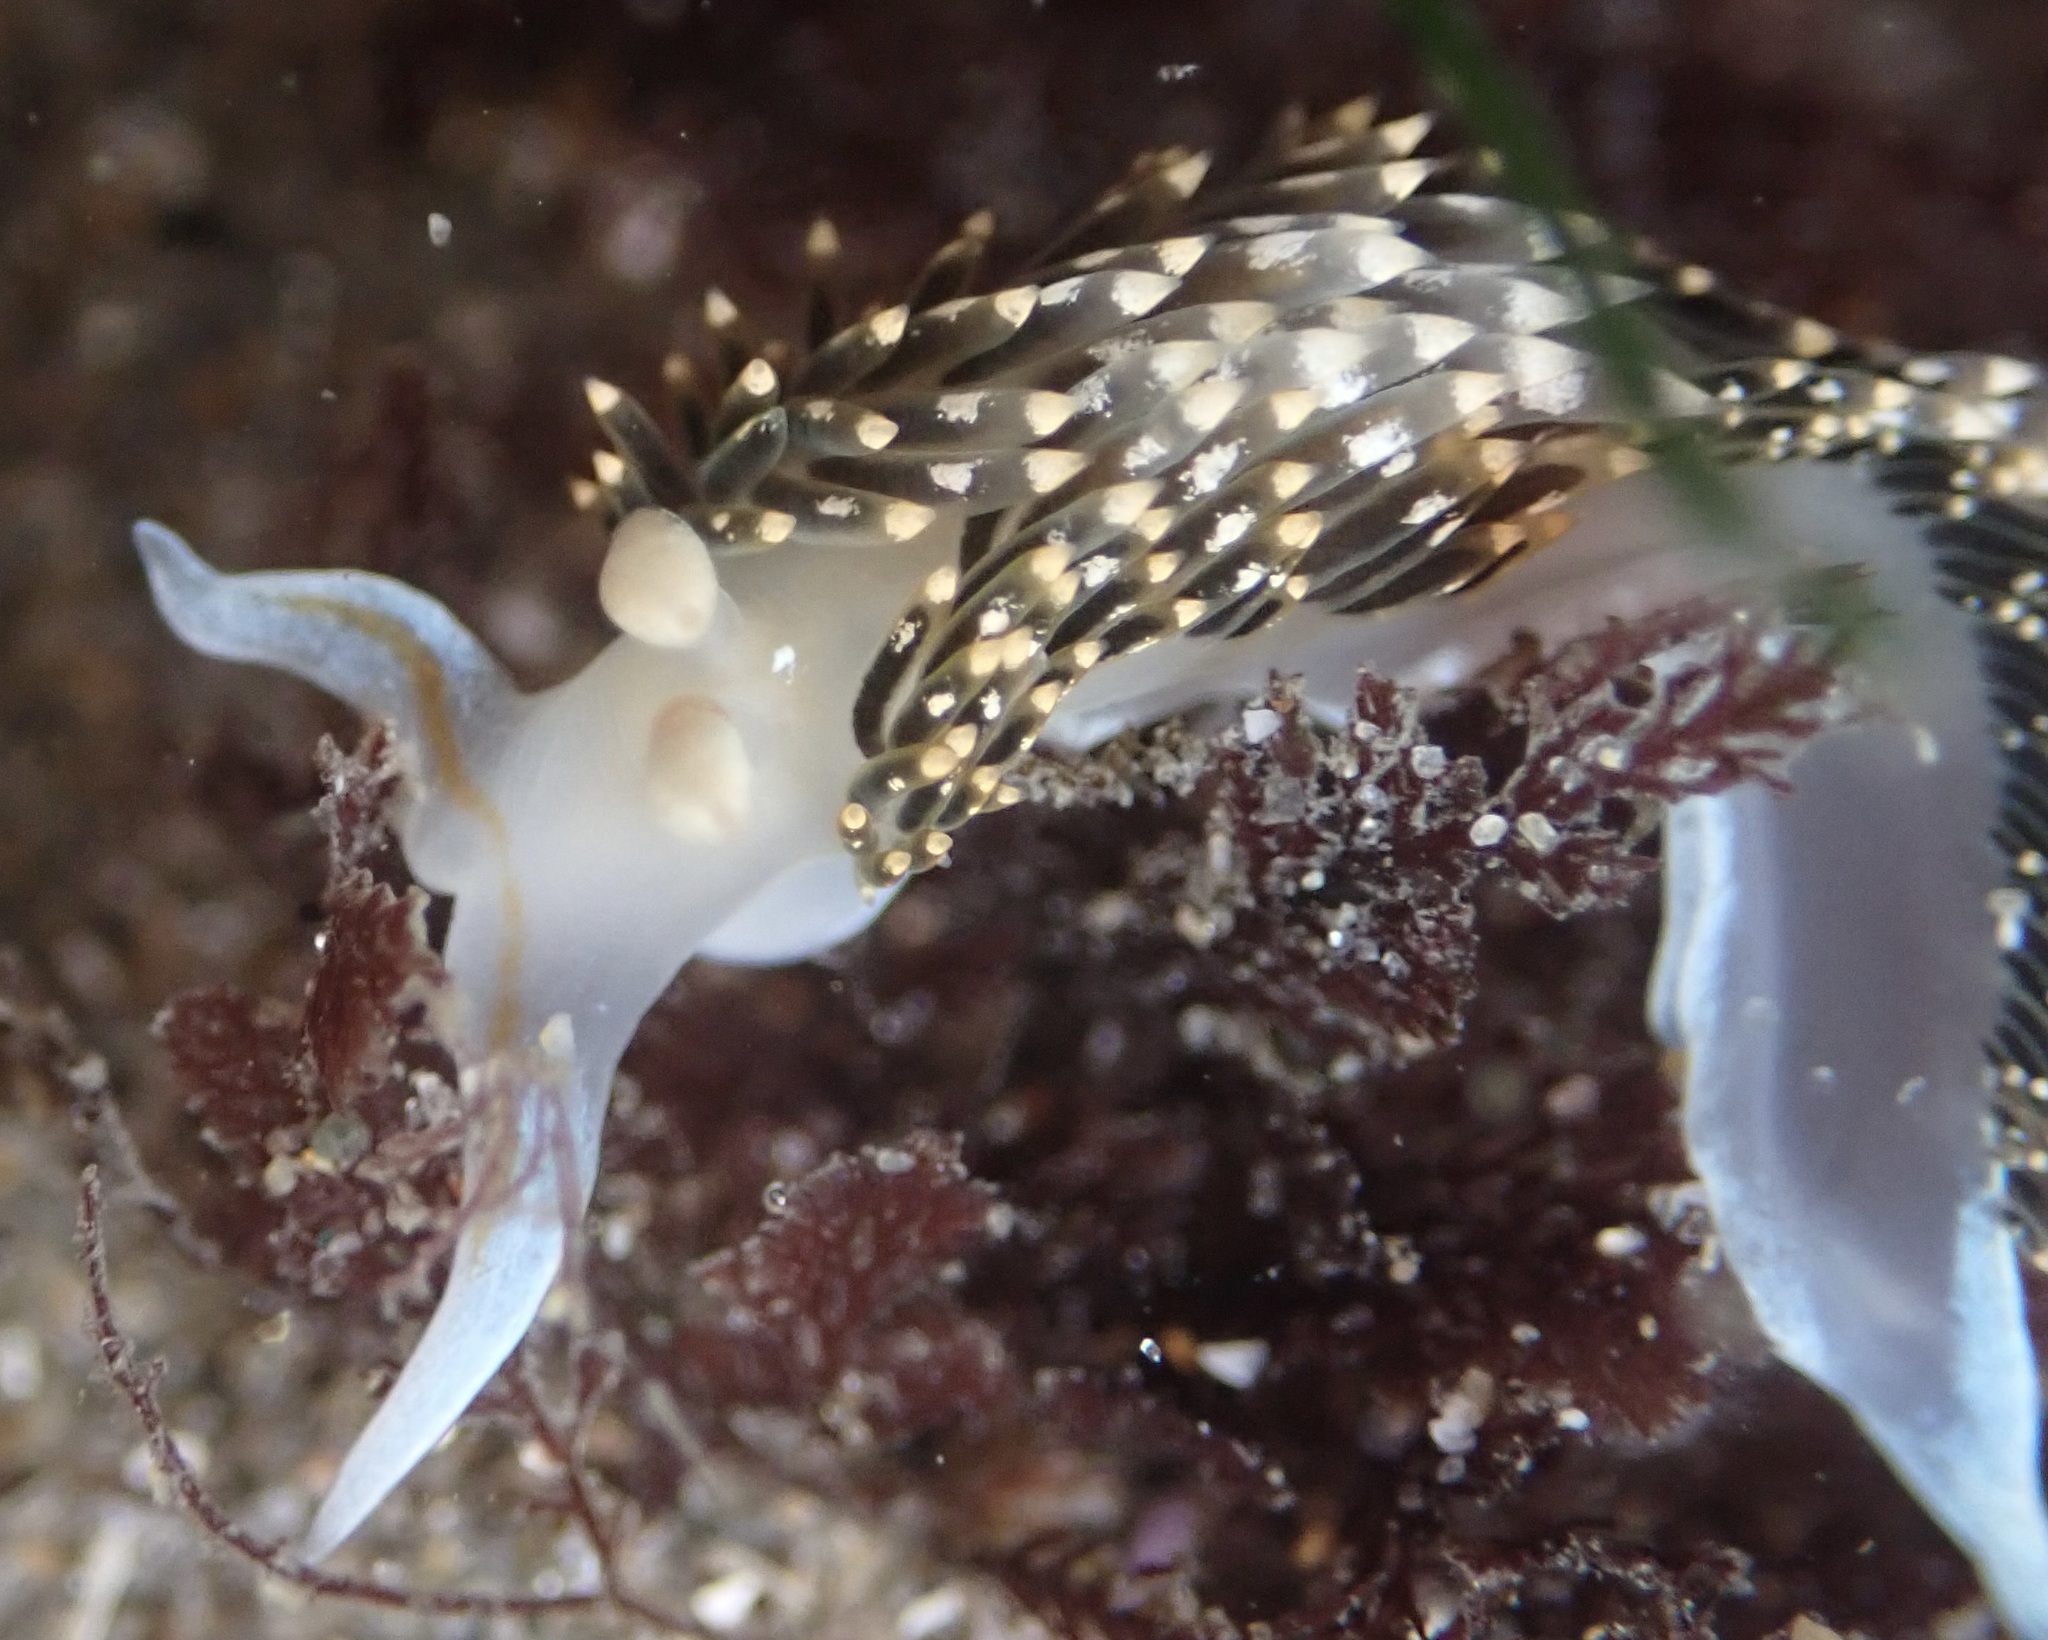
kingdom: Animalia
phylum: Mollusca
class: Gastropoda
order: Nudibranchia
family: Facelinidae
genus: Phidiana
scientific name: Phidiana hiltoni
